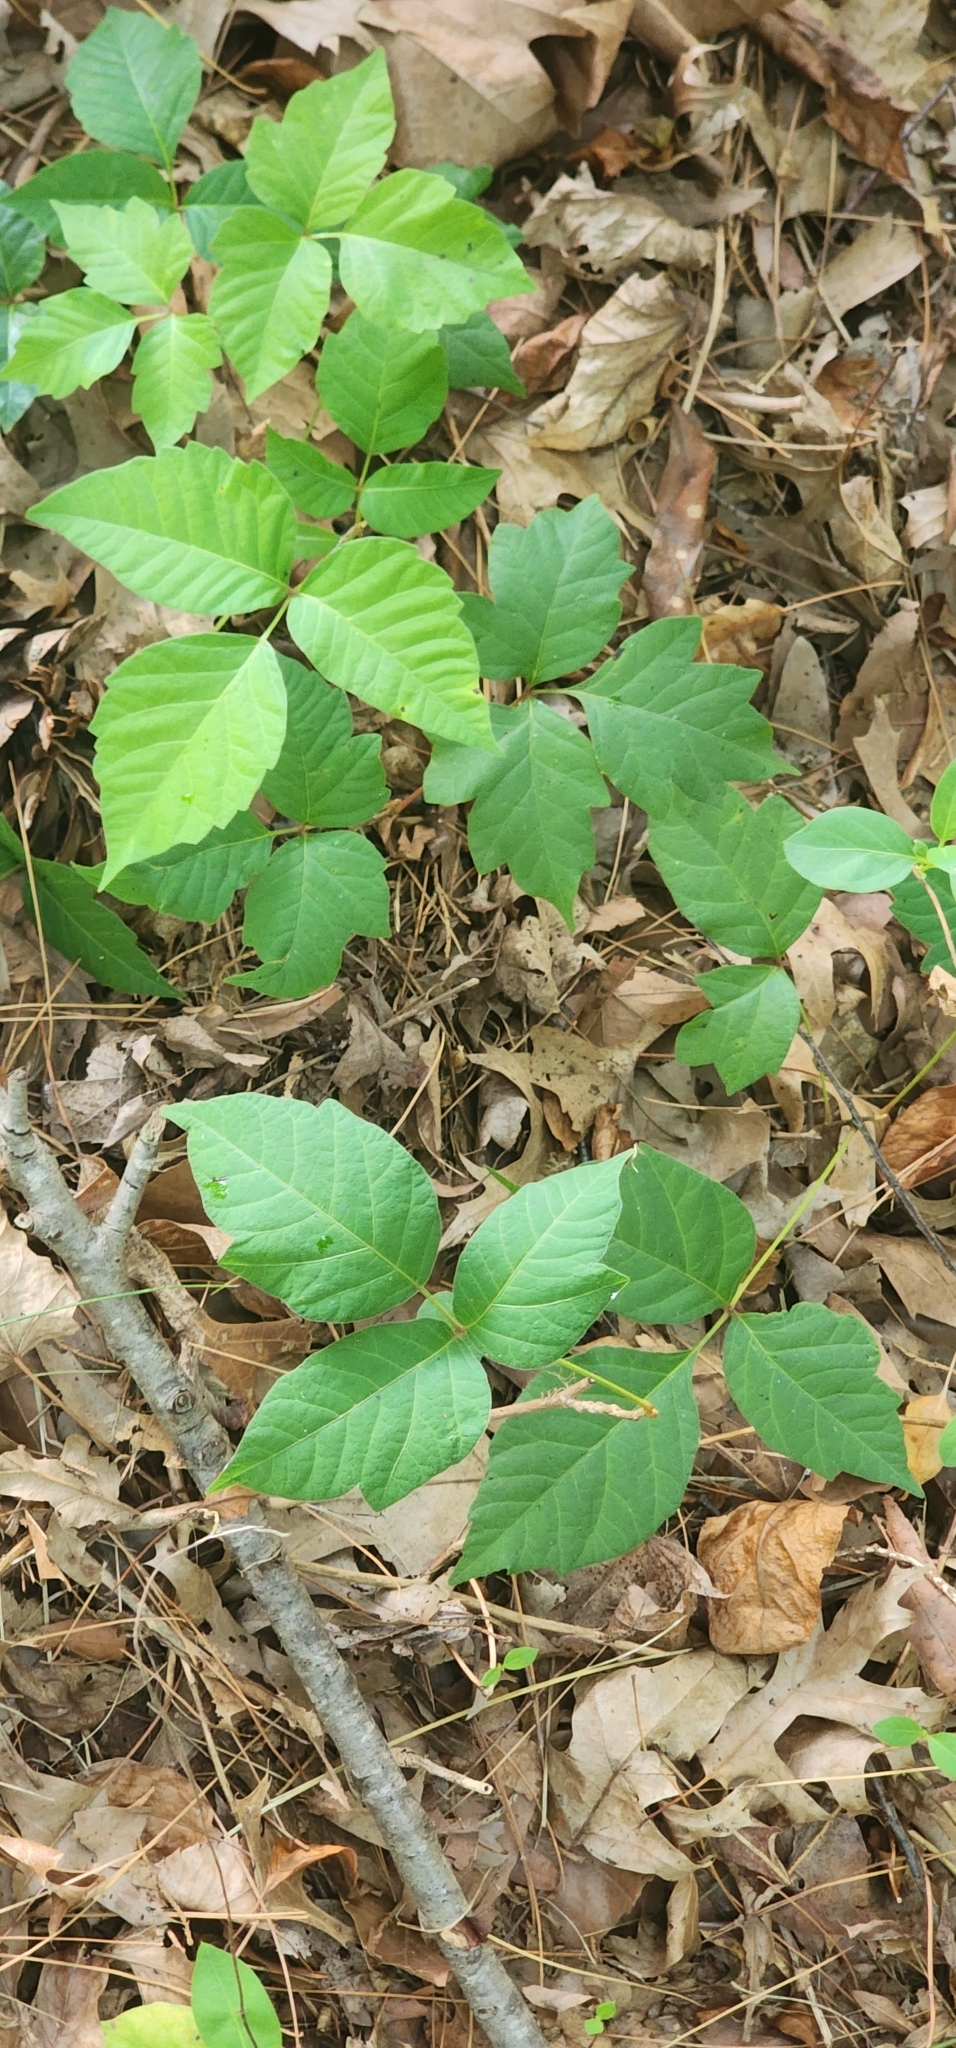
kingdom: Plantae
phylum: Tracheophyta
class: Magnoliopsida
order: Sapindales
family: Anacardiaceae
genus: Toxicodendron
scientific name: Toxicodendron radicans
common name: Poison ivy
